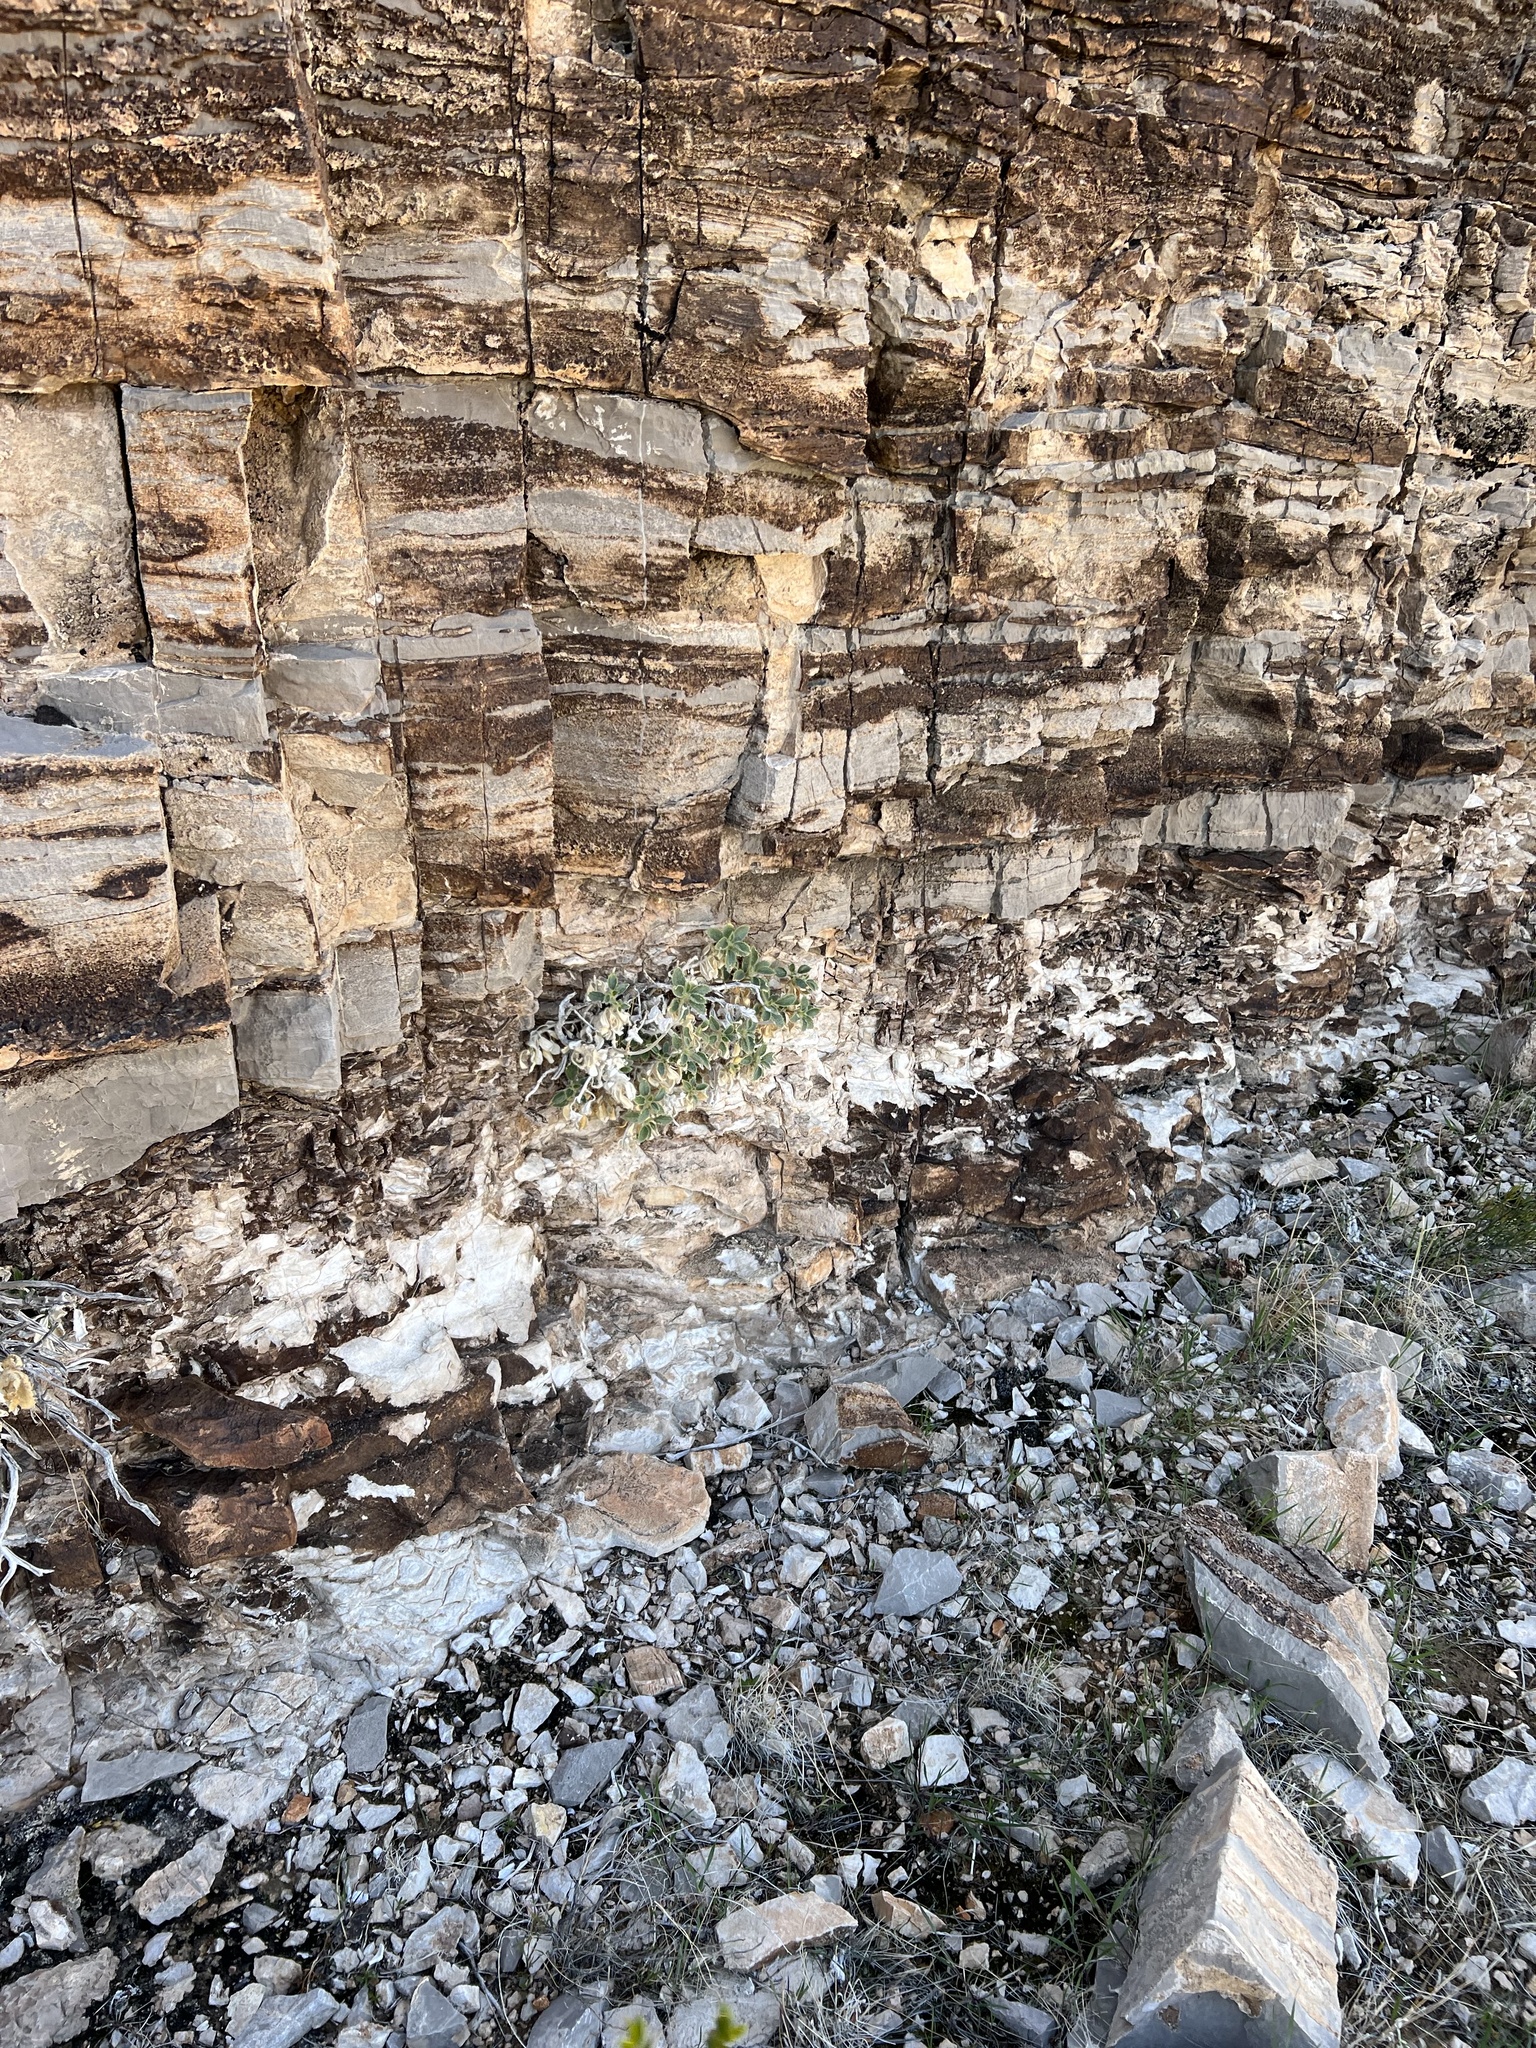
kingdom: Plantae
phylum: Tracheophyta
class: Magnoliopsida
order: Cornales
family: Loasaceae
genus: Eucnide
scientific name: Eucnide urens
